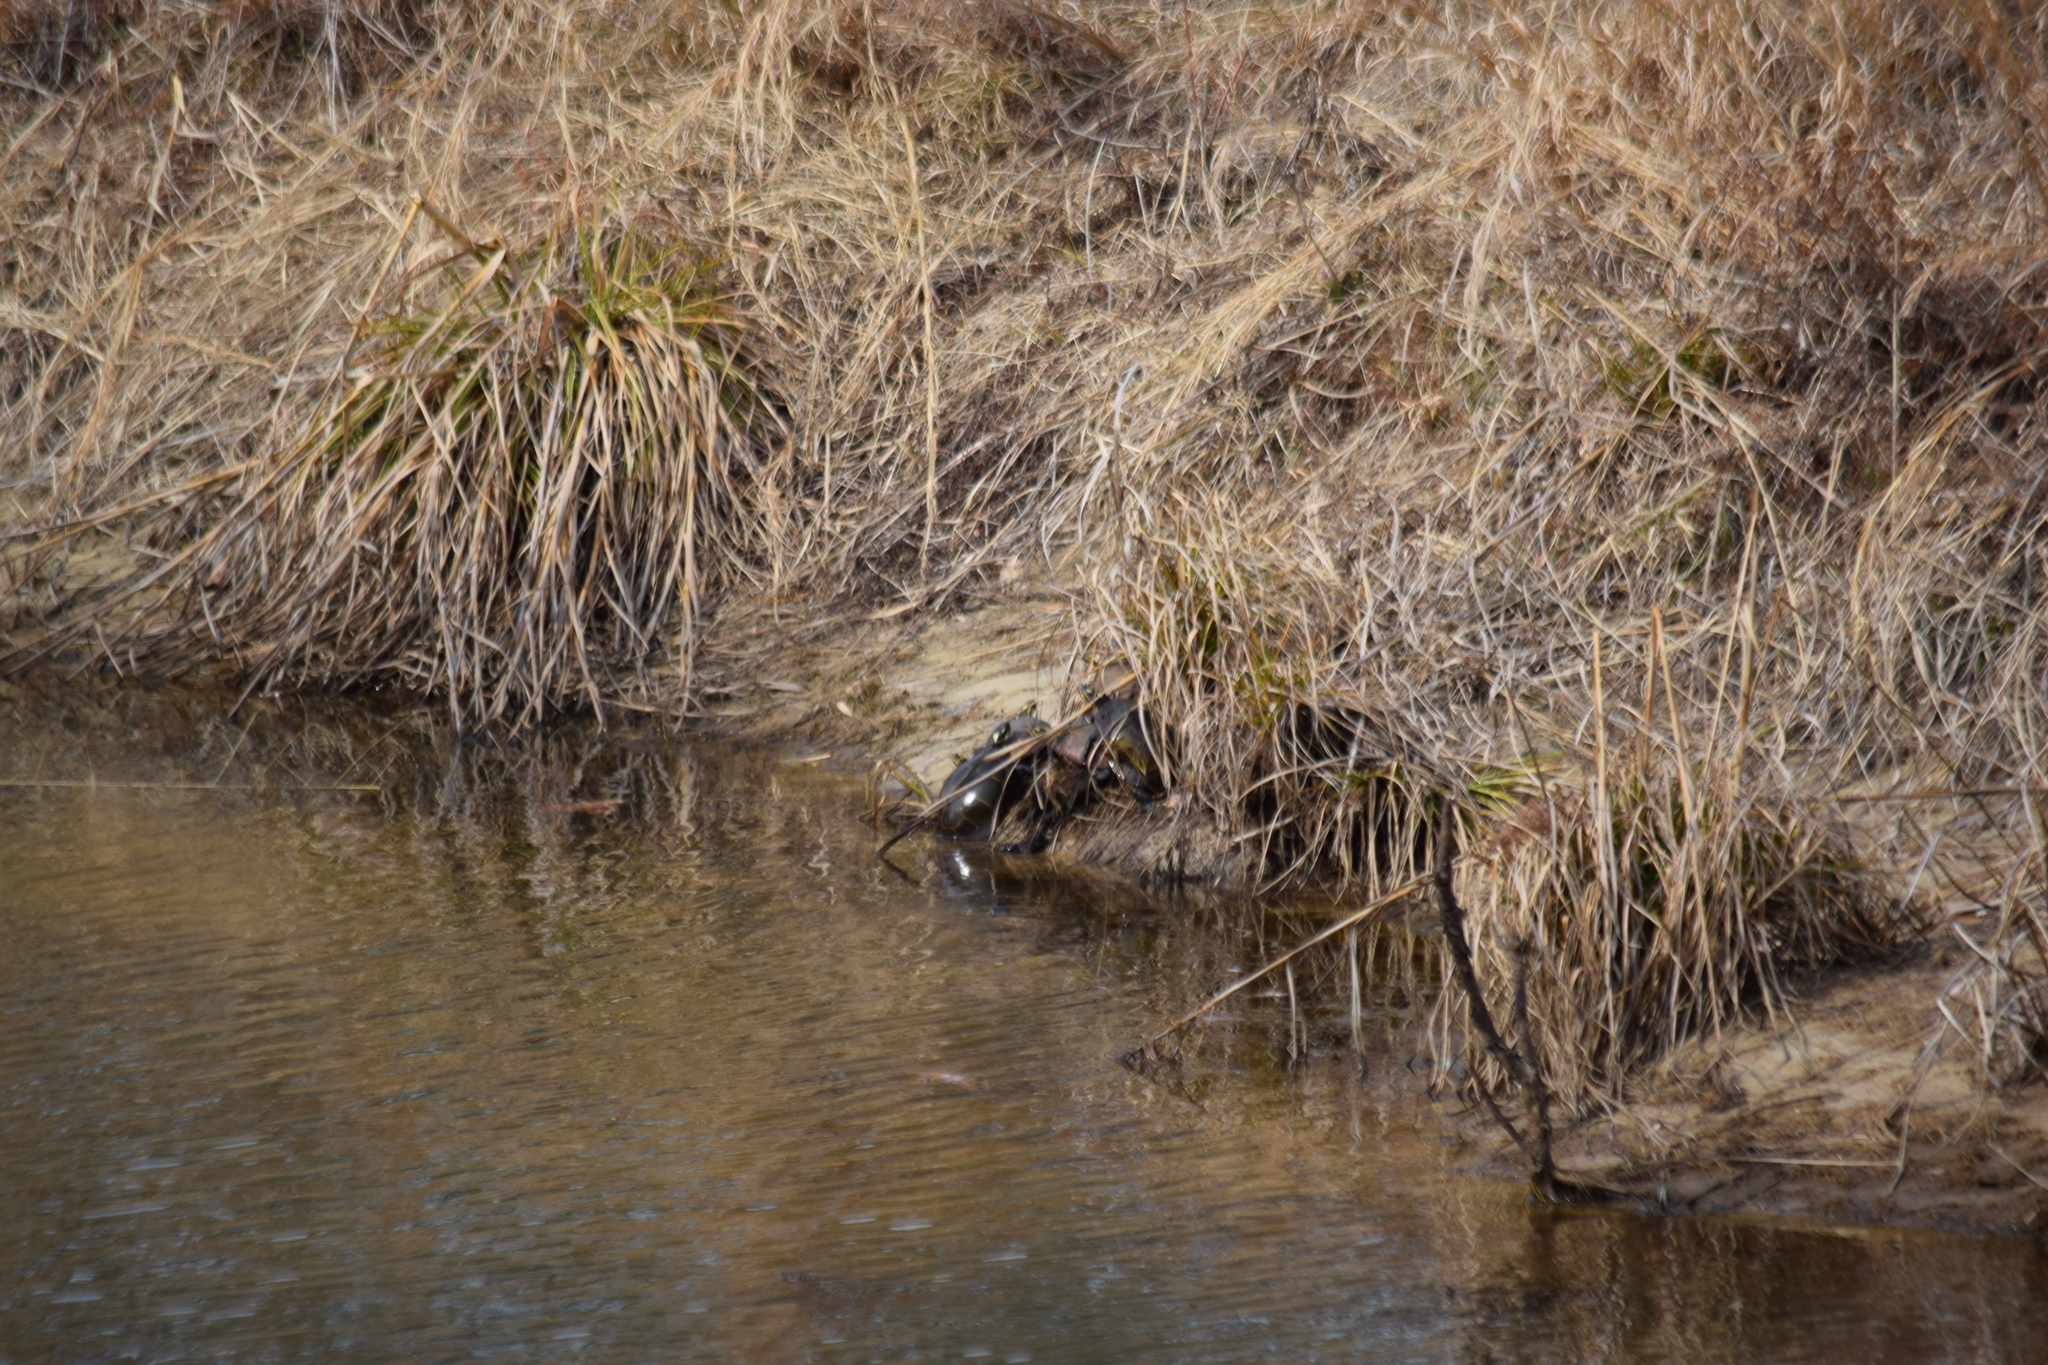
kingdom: Animalia
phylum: Chordata
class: Testudines
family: Emydidae
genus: Chrysemys
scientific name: Chrysemys picta
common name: Painted turtle
